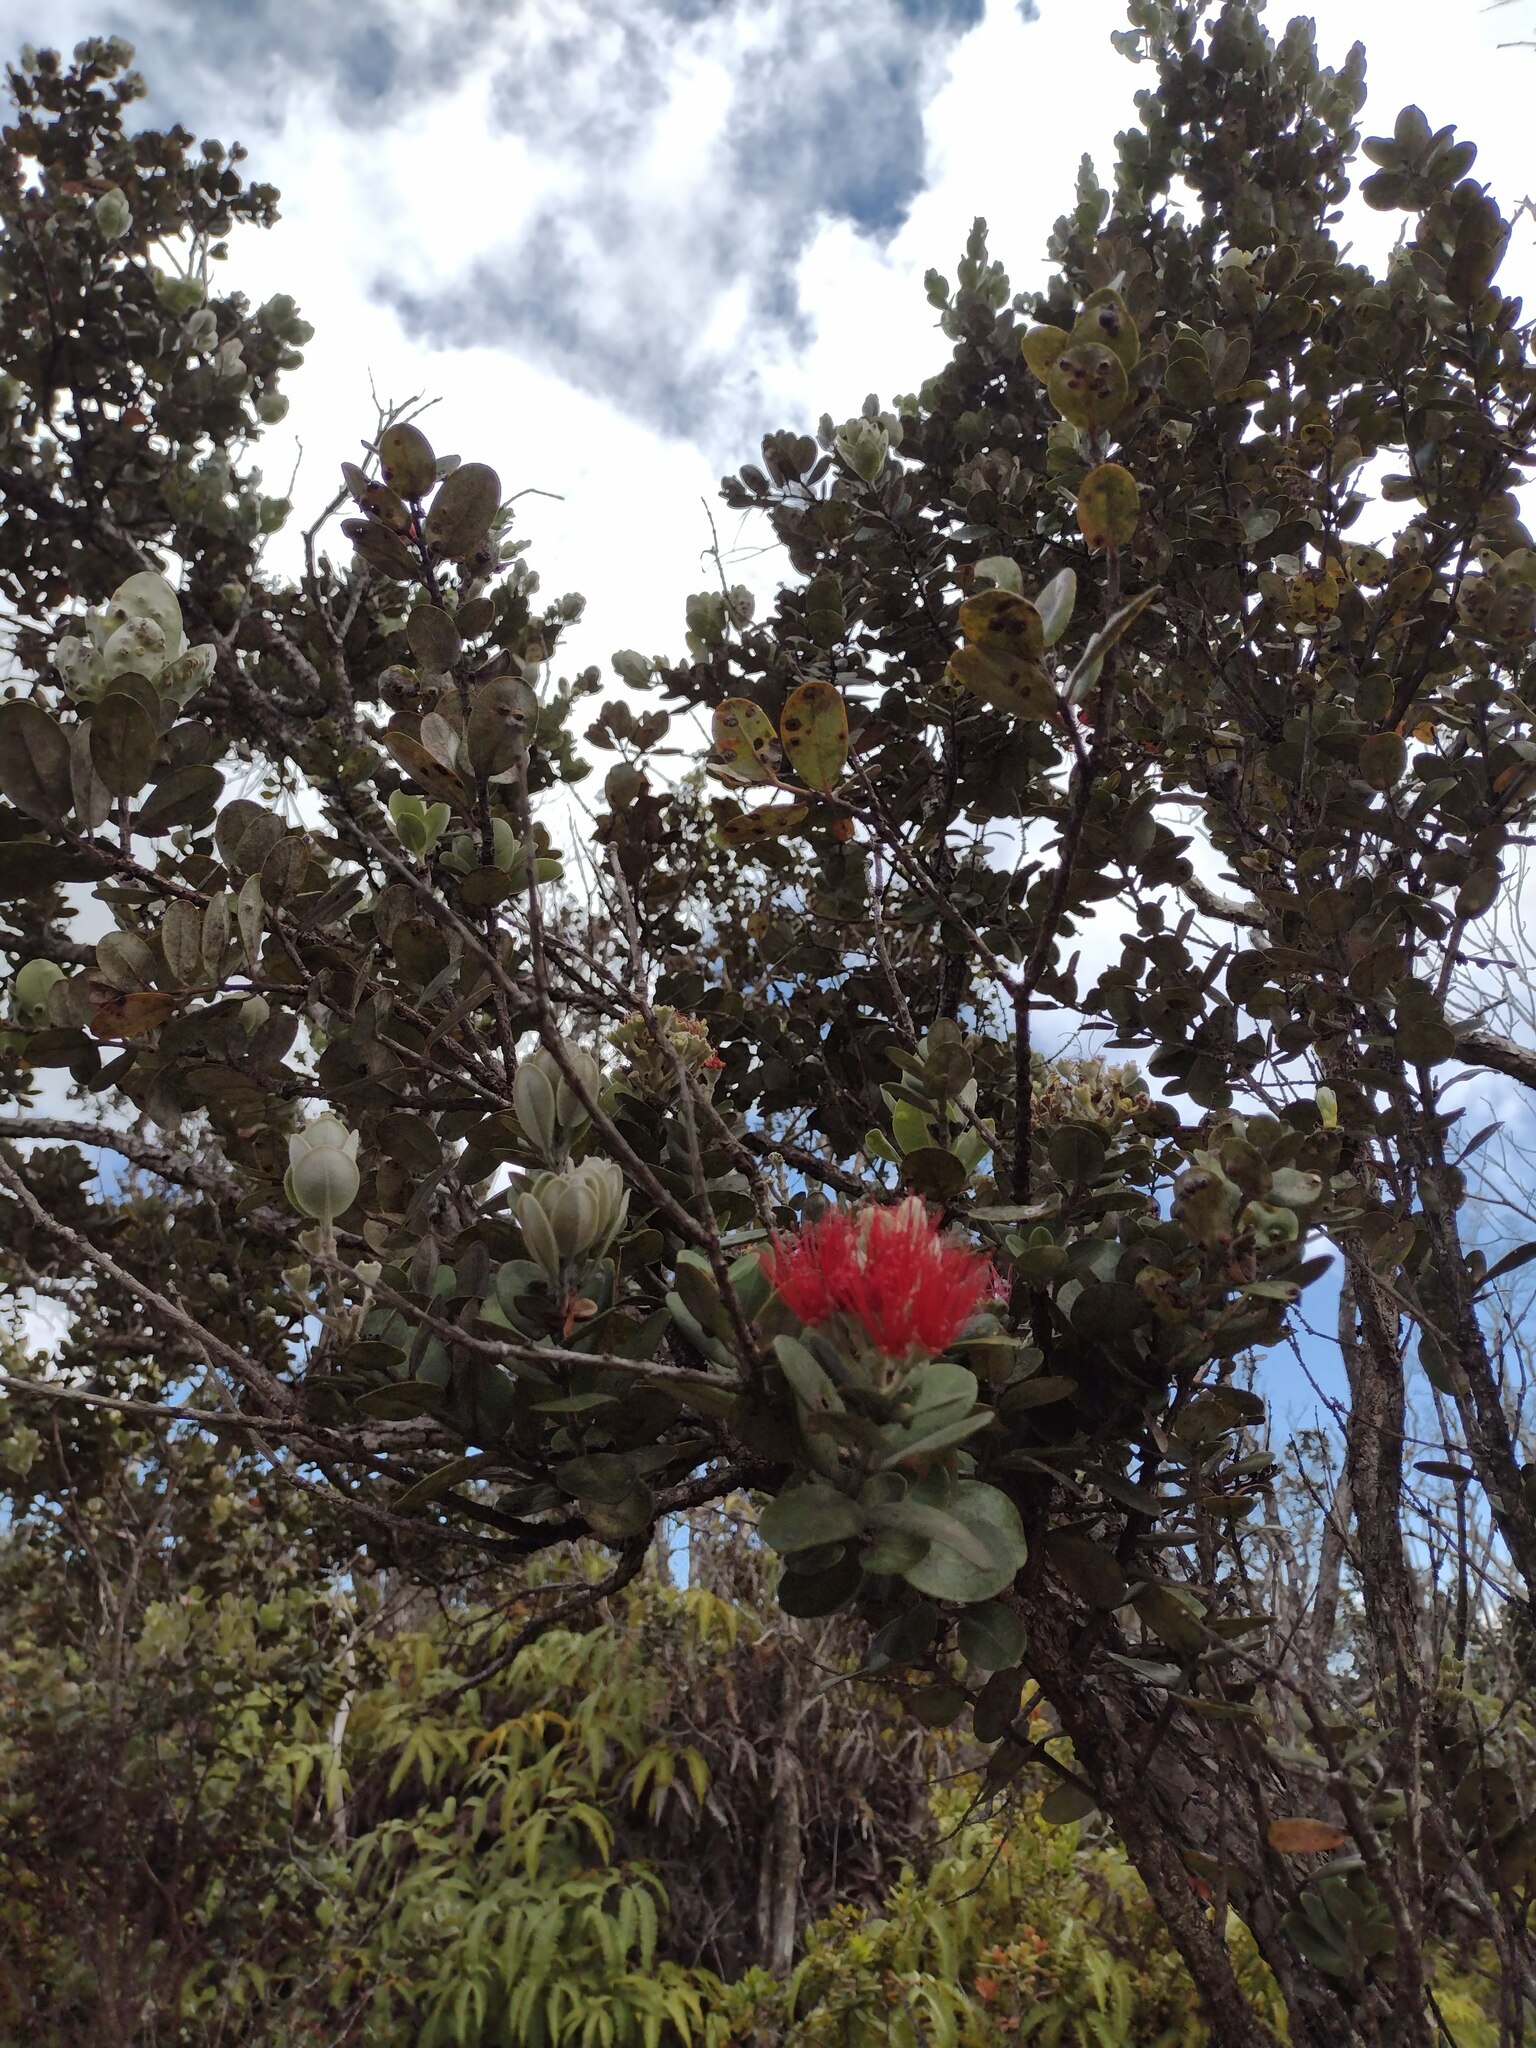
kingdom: Plantae
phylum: Tracheophyta
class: Magnoliopsida
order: Myrtales
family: Myrtaceae
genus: Metrosideros
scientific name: Metrosideros polymorpha
